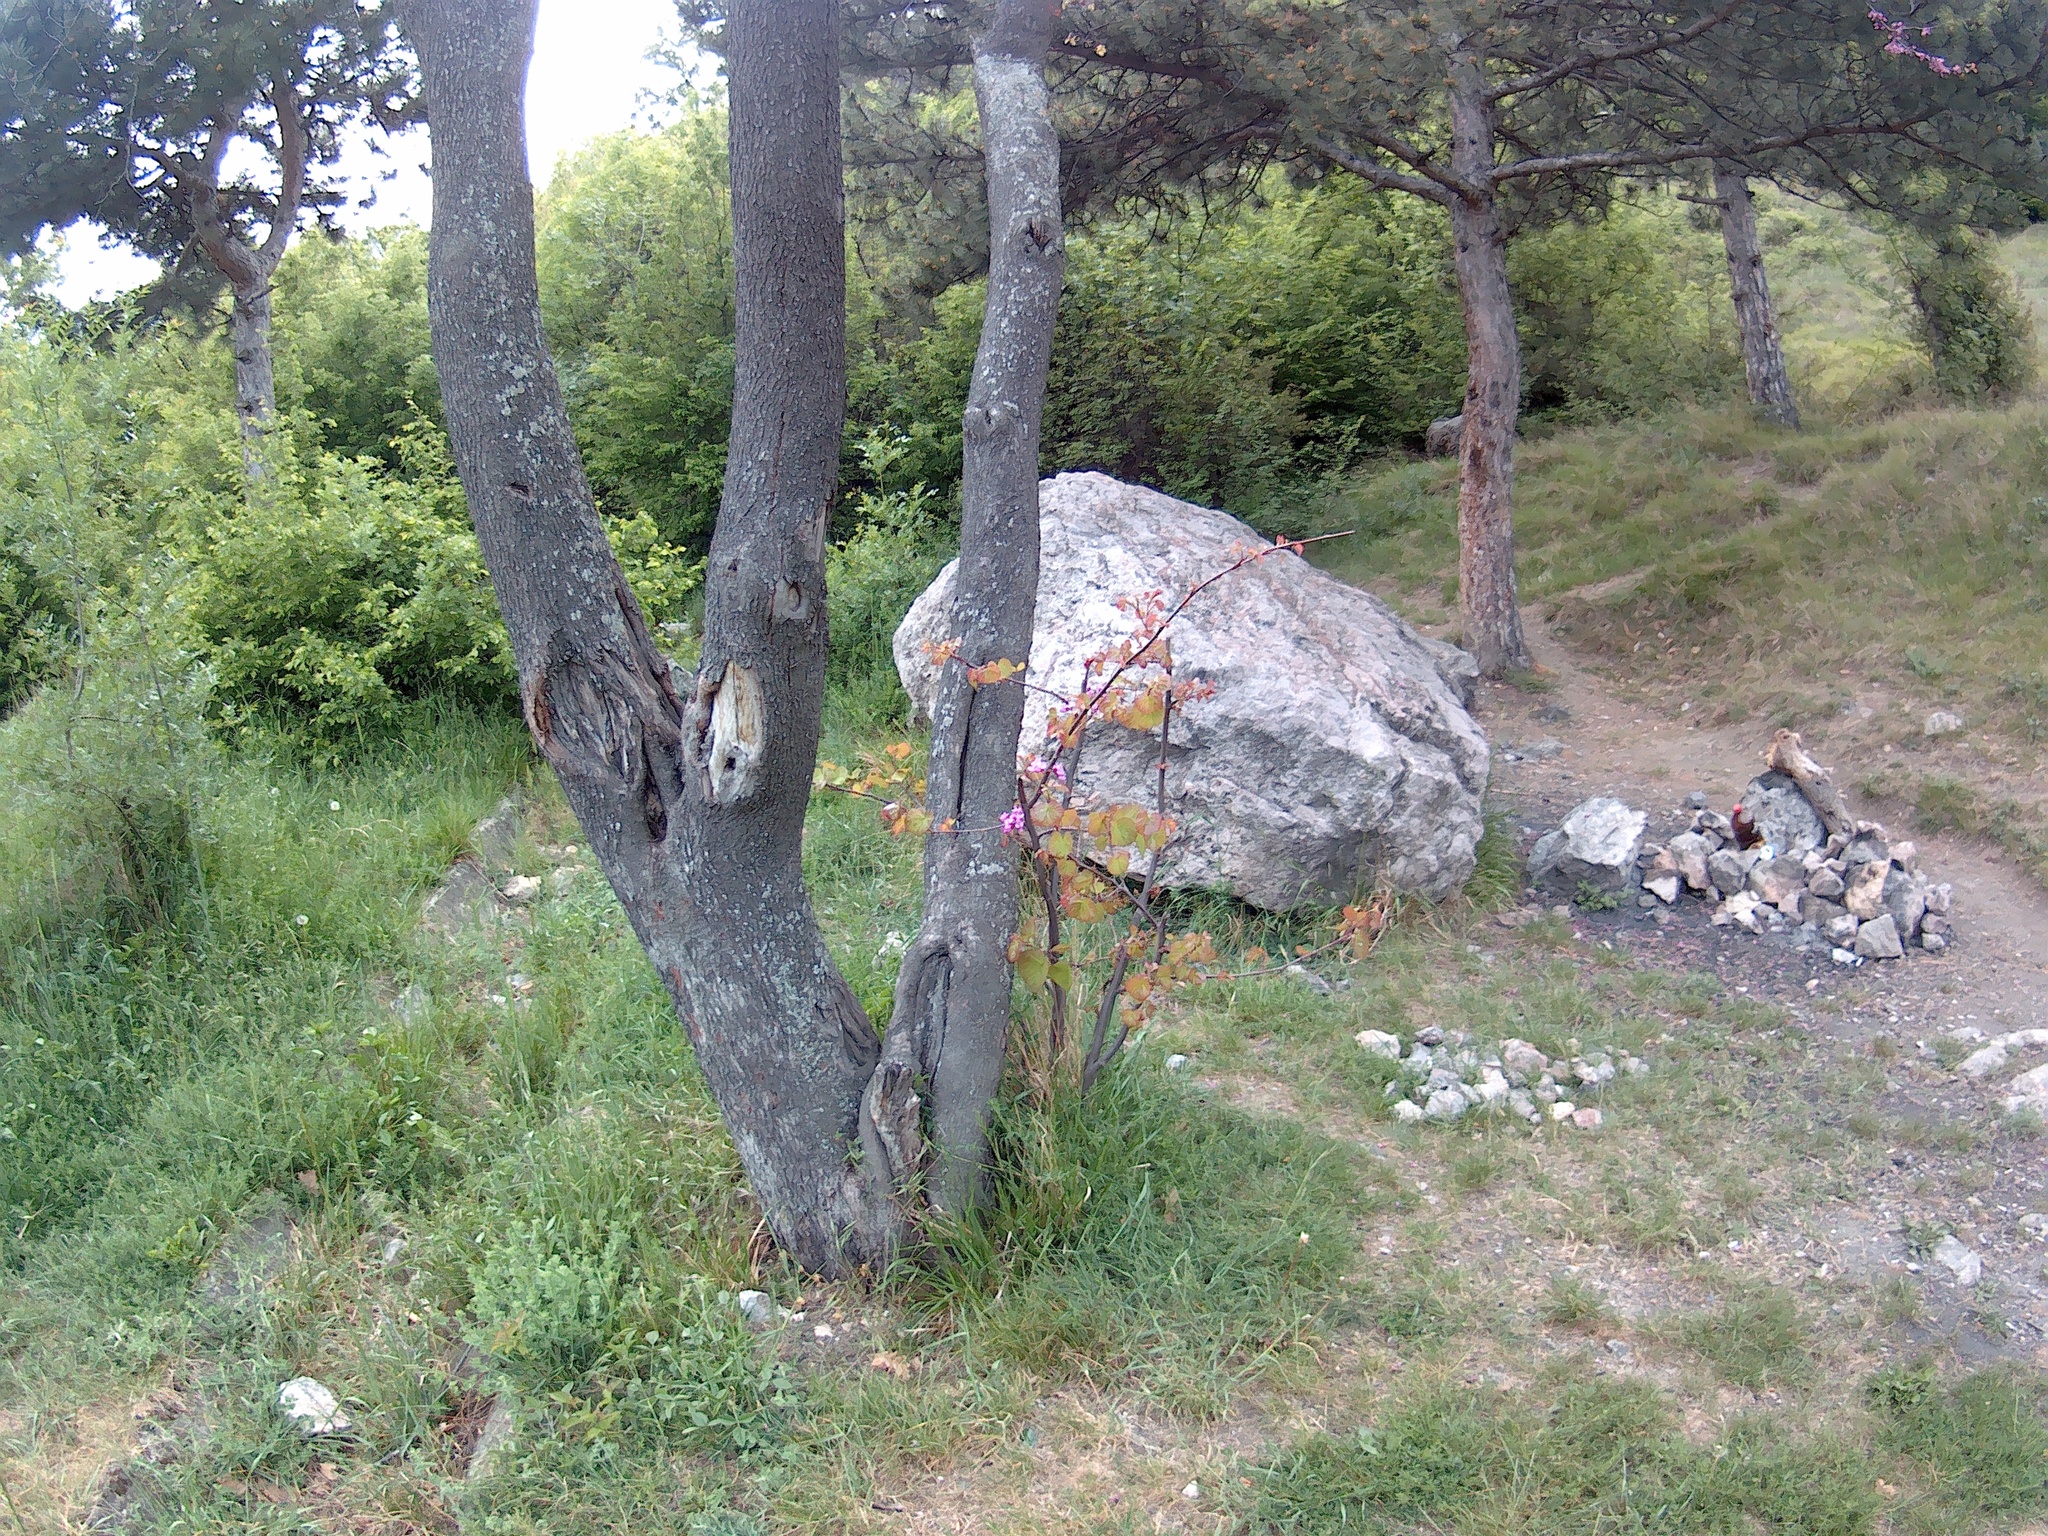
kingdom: Plantae
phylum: Tracheophyta
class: Magnoliopsida
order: Fabales
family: Fabaceae
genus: Cercis
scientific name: Cercis siliquastrum
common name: Judas tree
